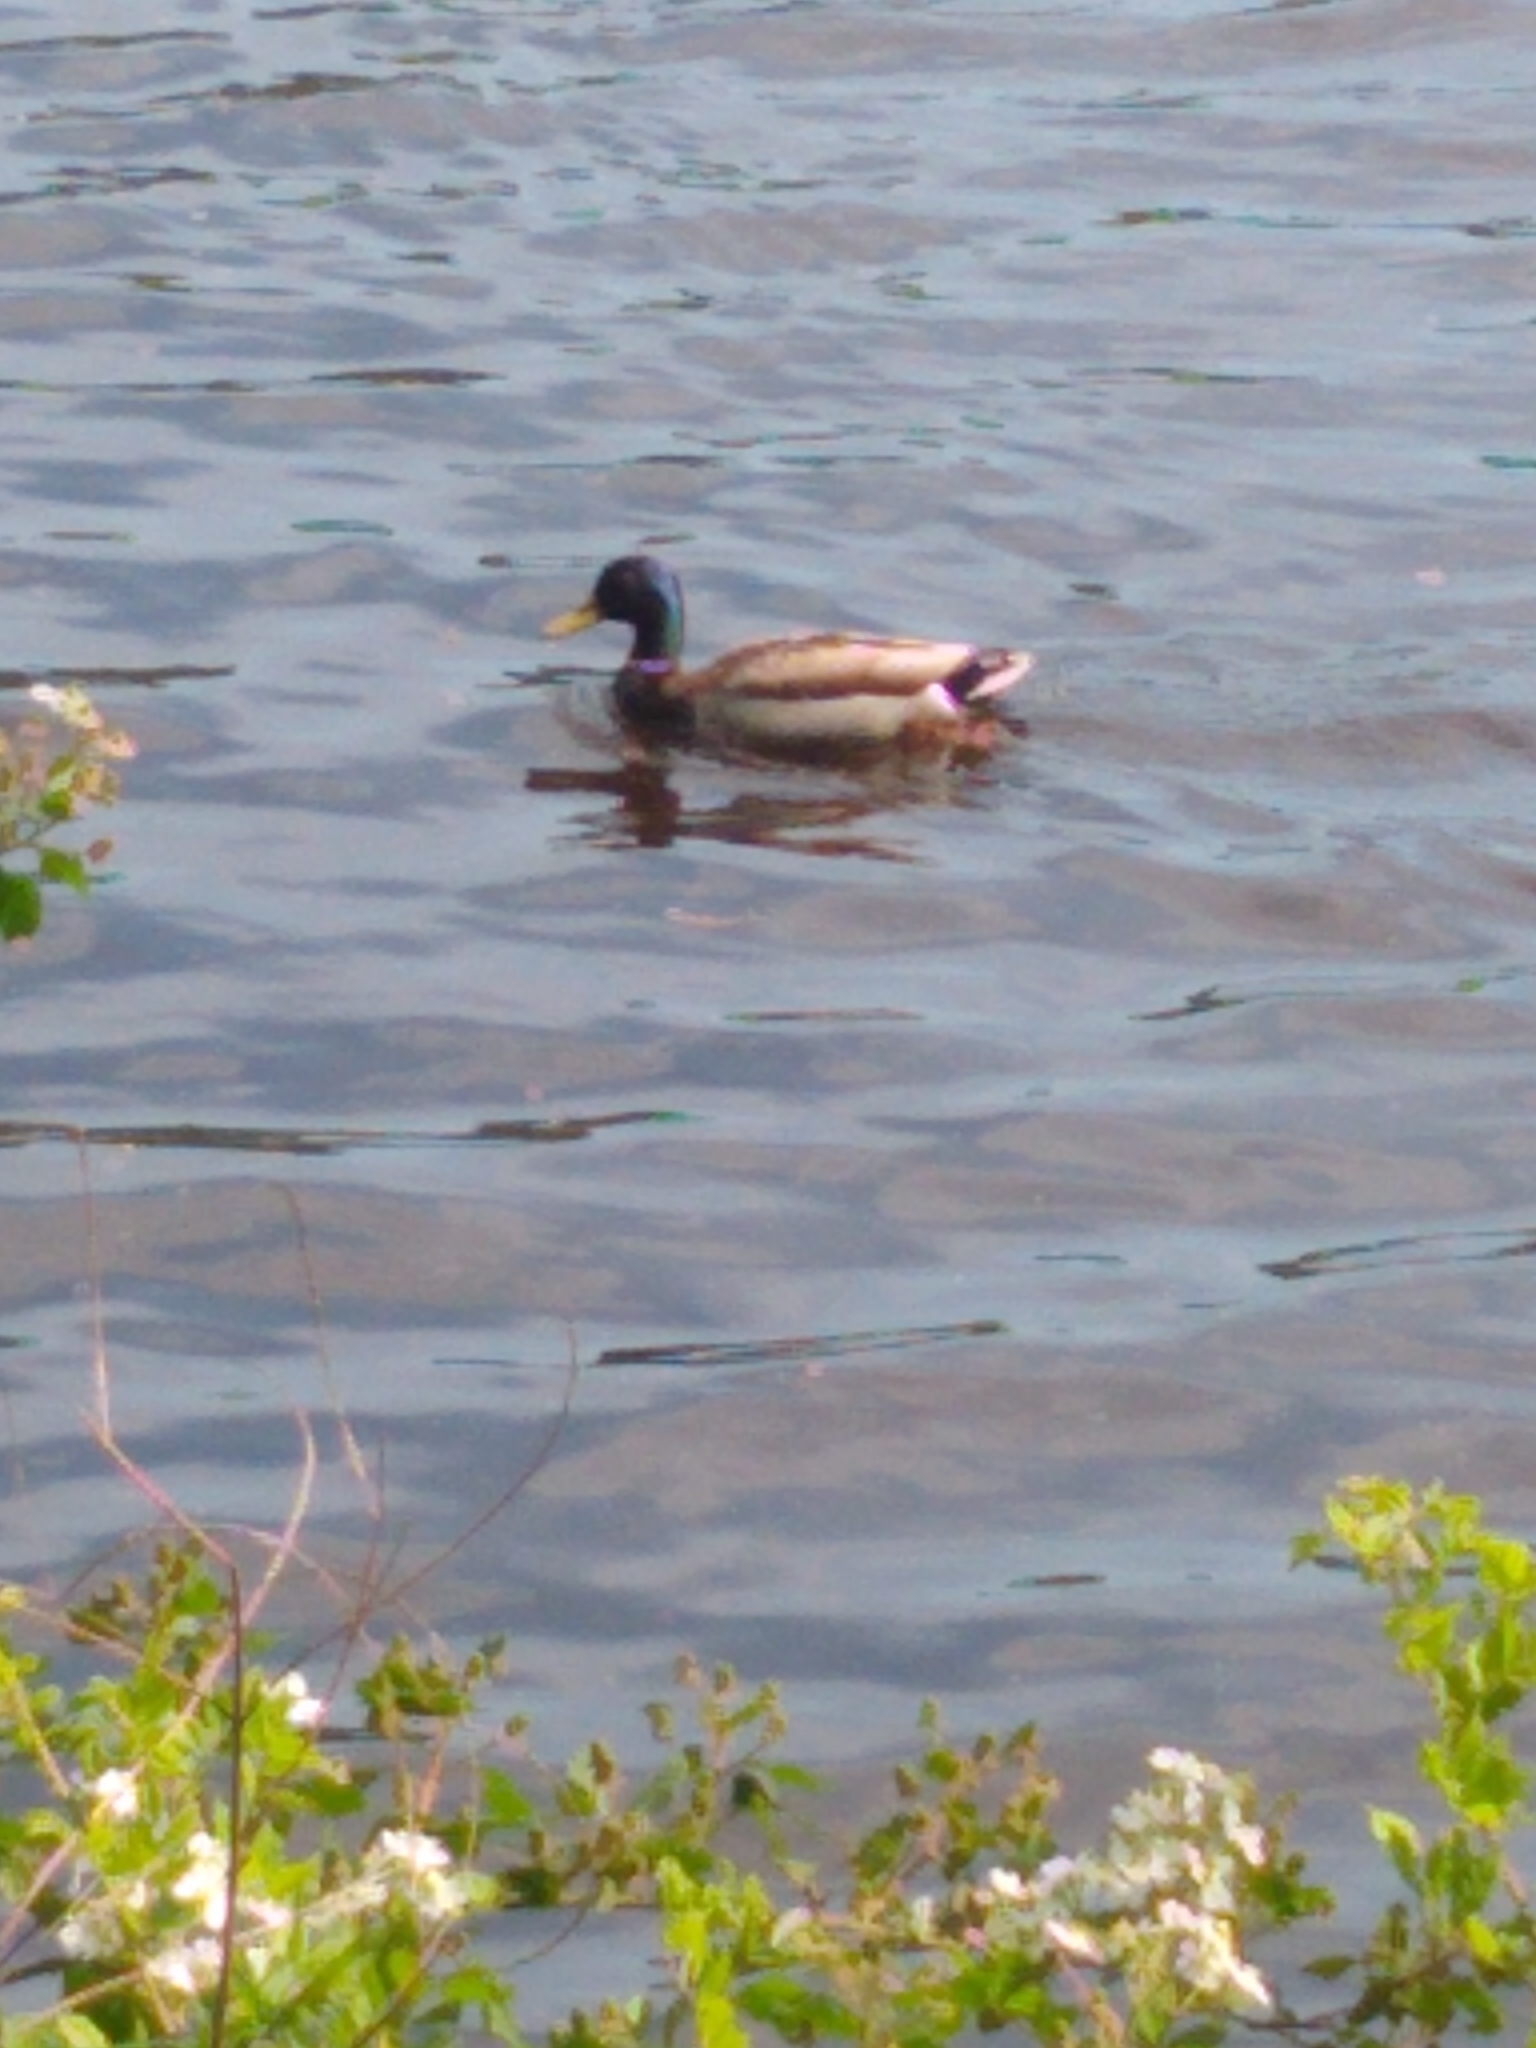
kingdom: Animalia
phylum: Chordata
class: Aves
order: Anseriformes
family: Anatidae
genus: Anas
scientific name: Anas platyrhynchos
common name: Mallard
